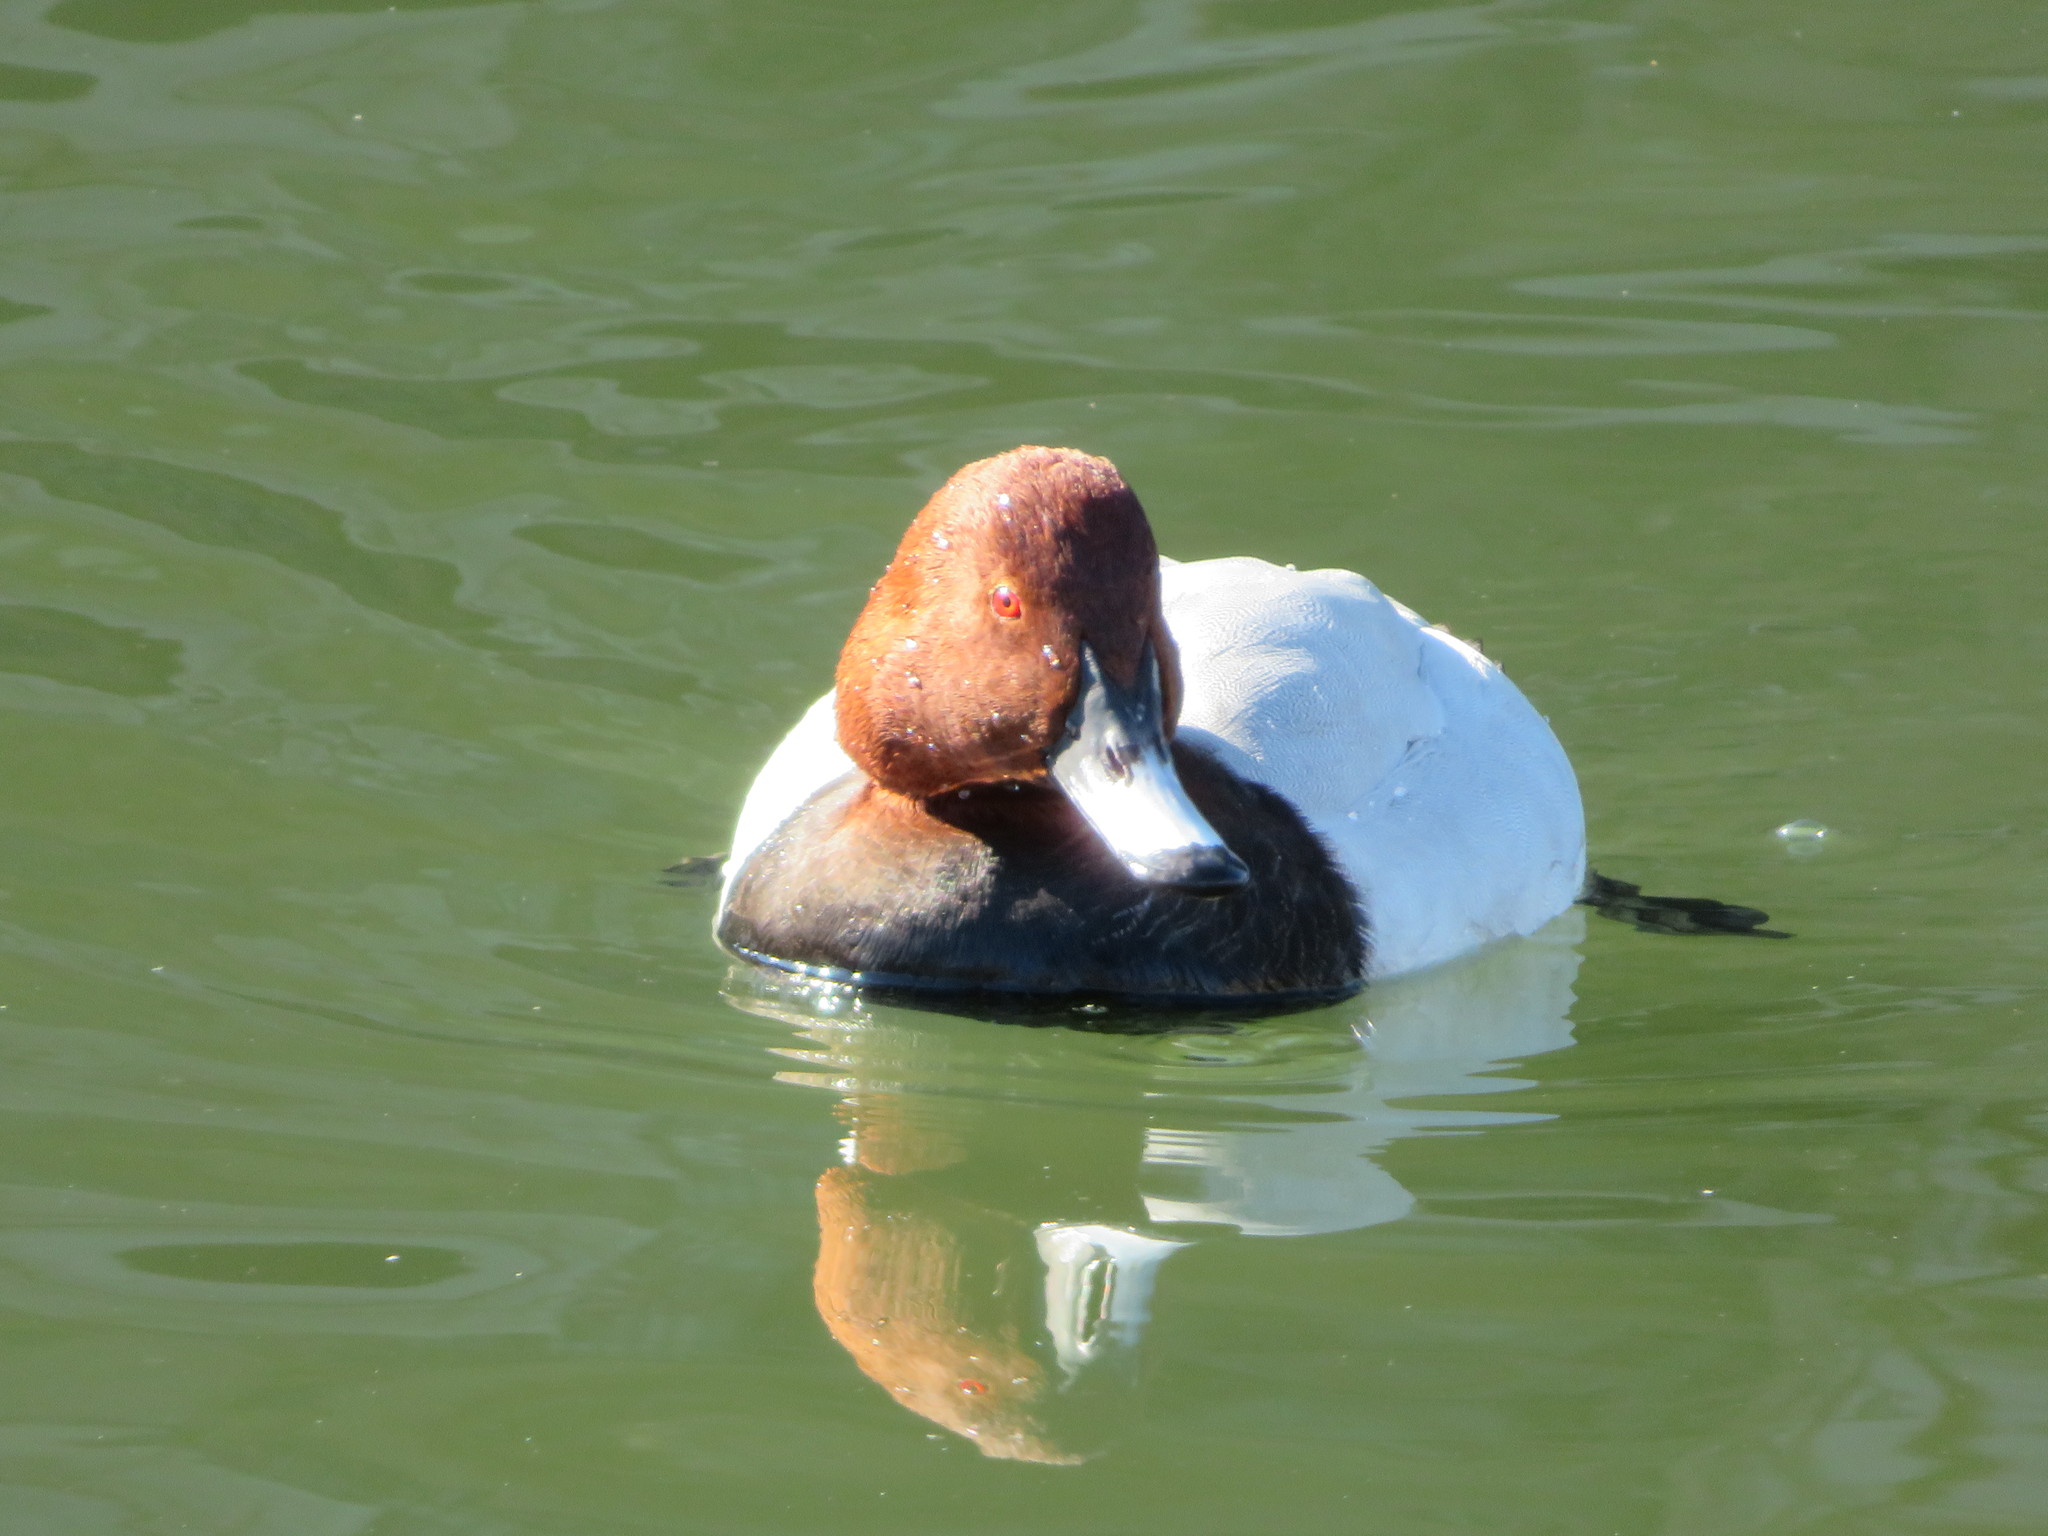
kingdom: Animalia
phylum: Chordata
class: Aves
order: Anseriformes
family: Anatidae
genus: Aythya
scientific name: Aythya ferina
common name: Common pochard
